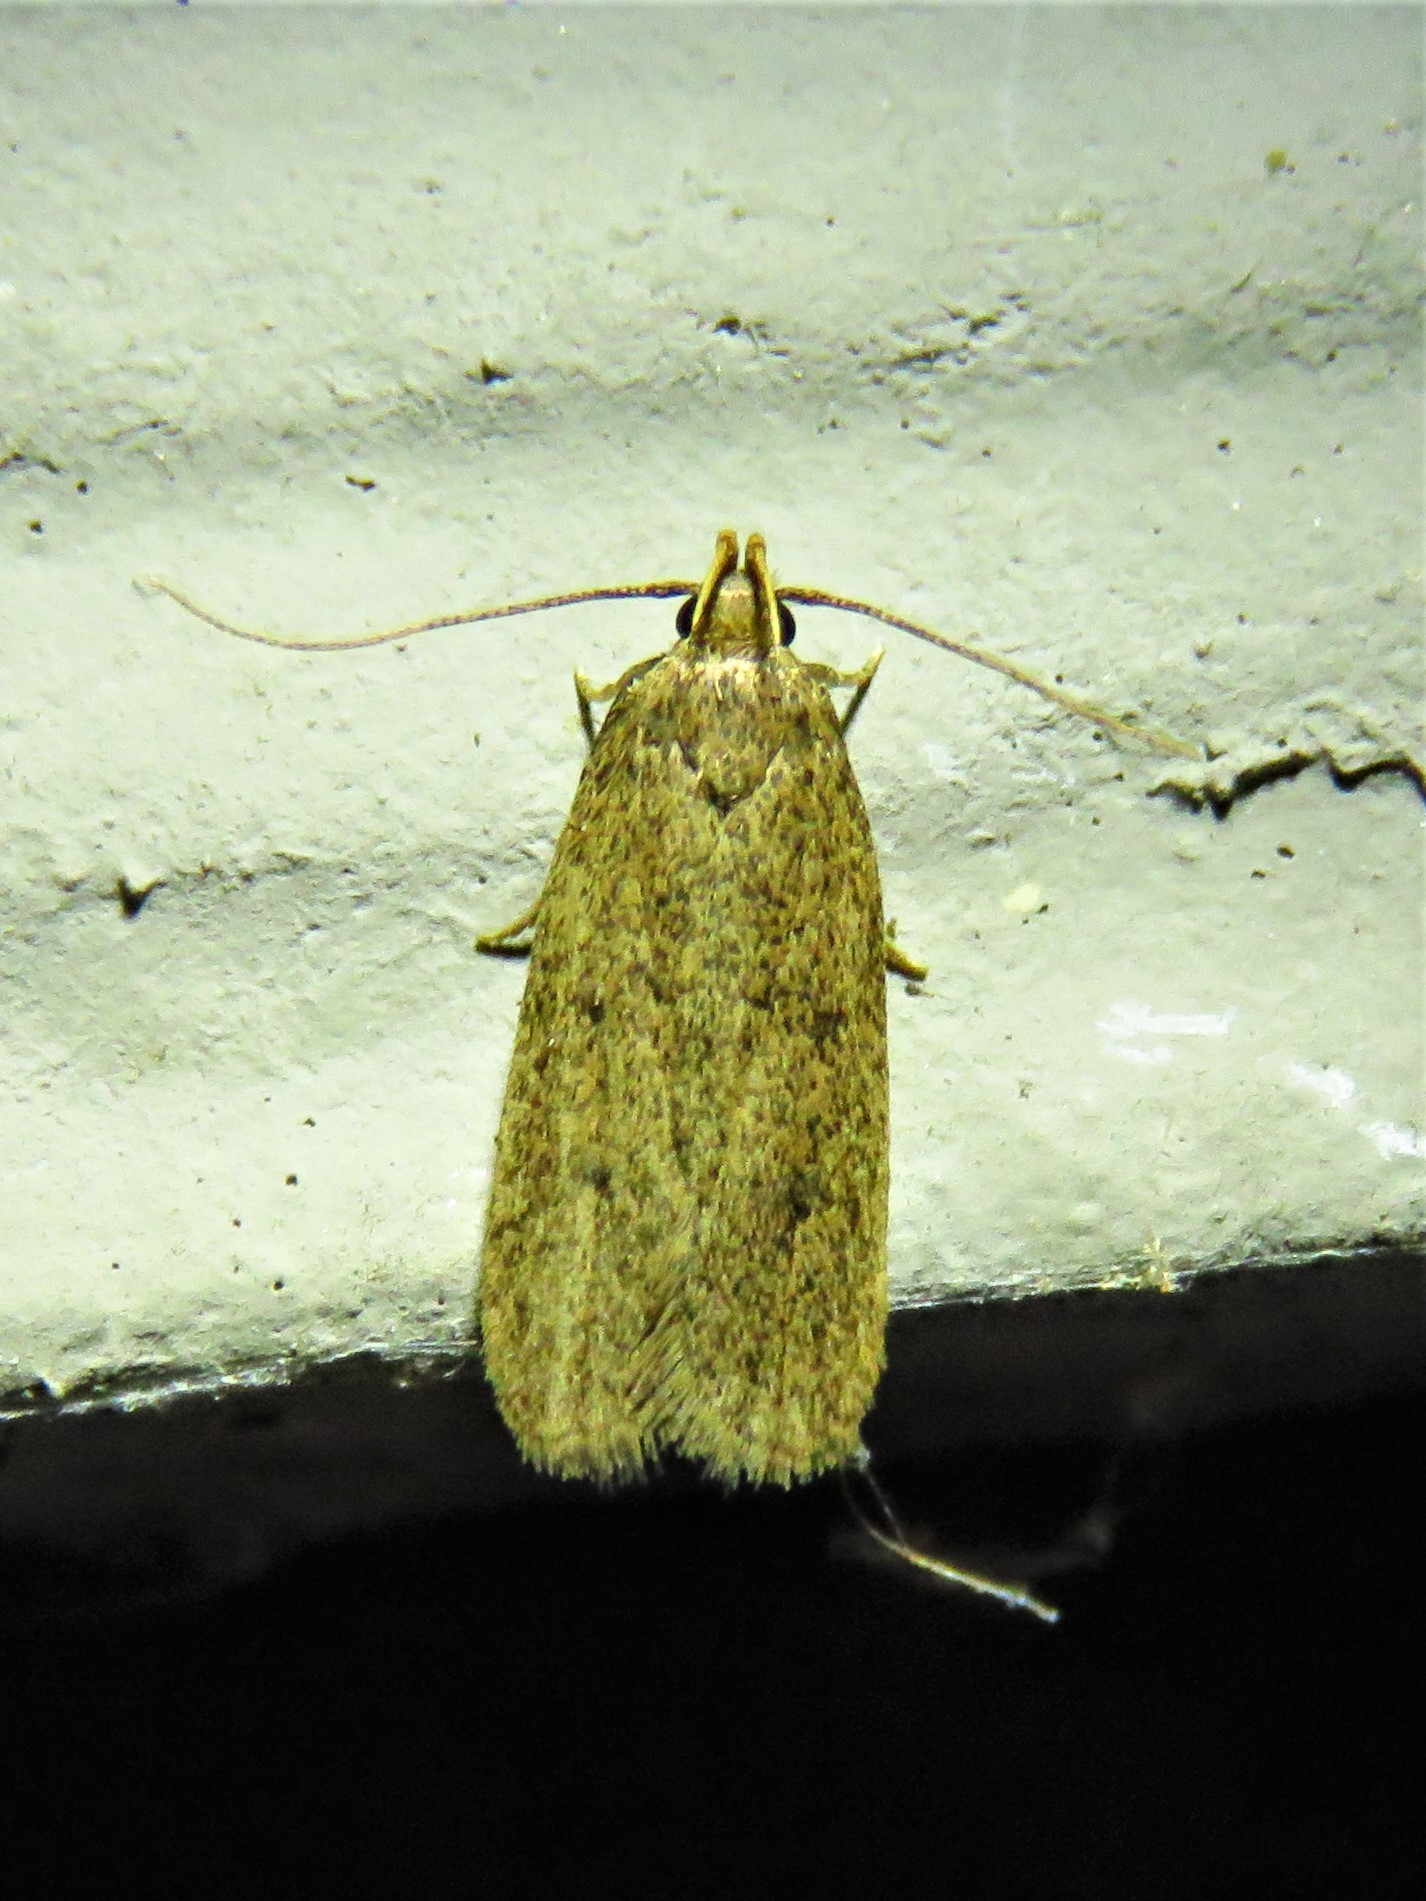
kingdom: Animalia
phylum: Arthropoda
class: Insecta
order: Lepidoptera
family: Autostichidae
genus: Glyphidocera
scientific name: Glyphidocera juniperella
